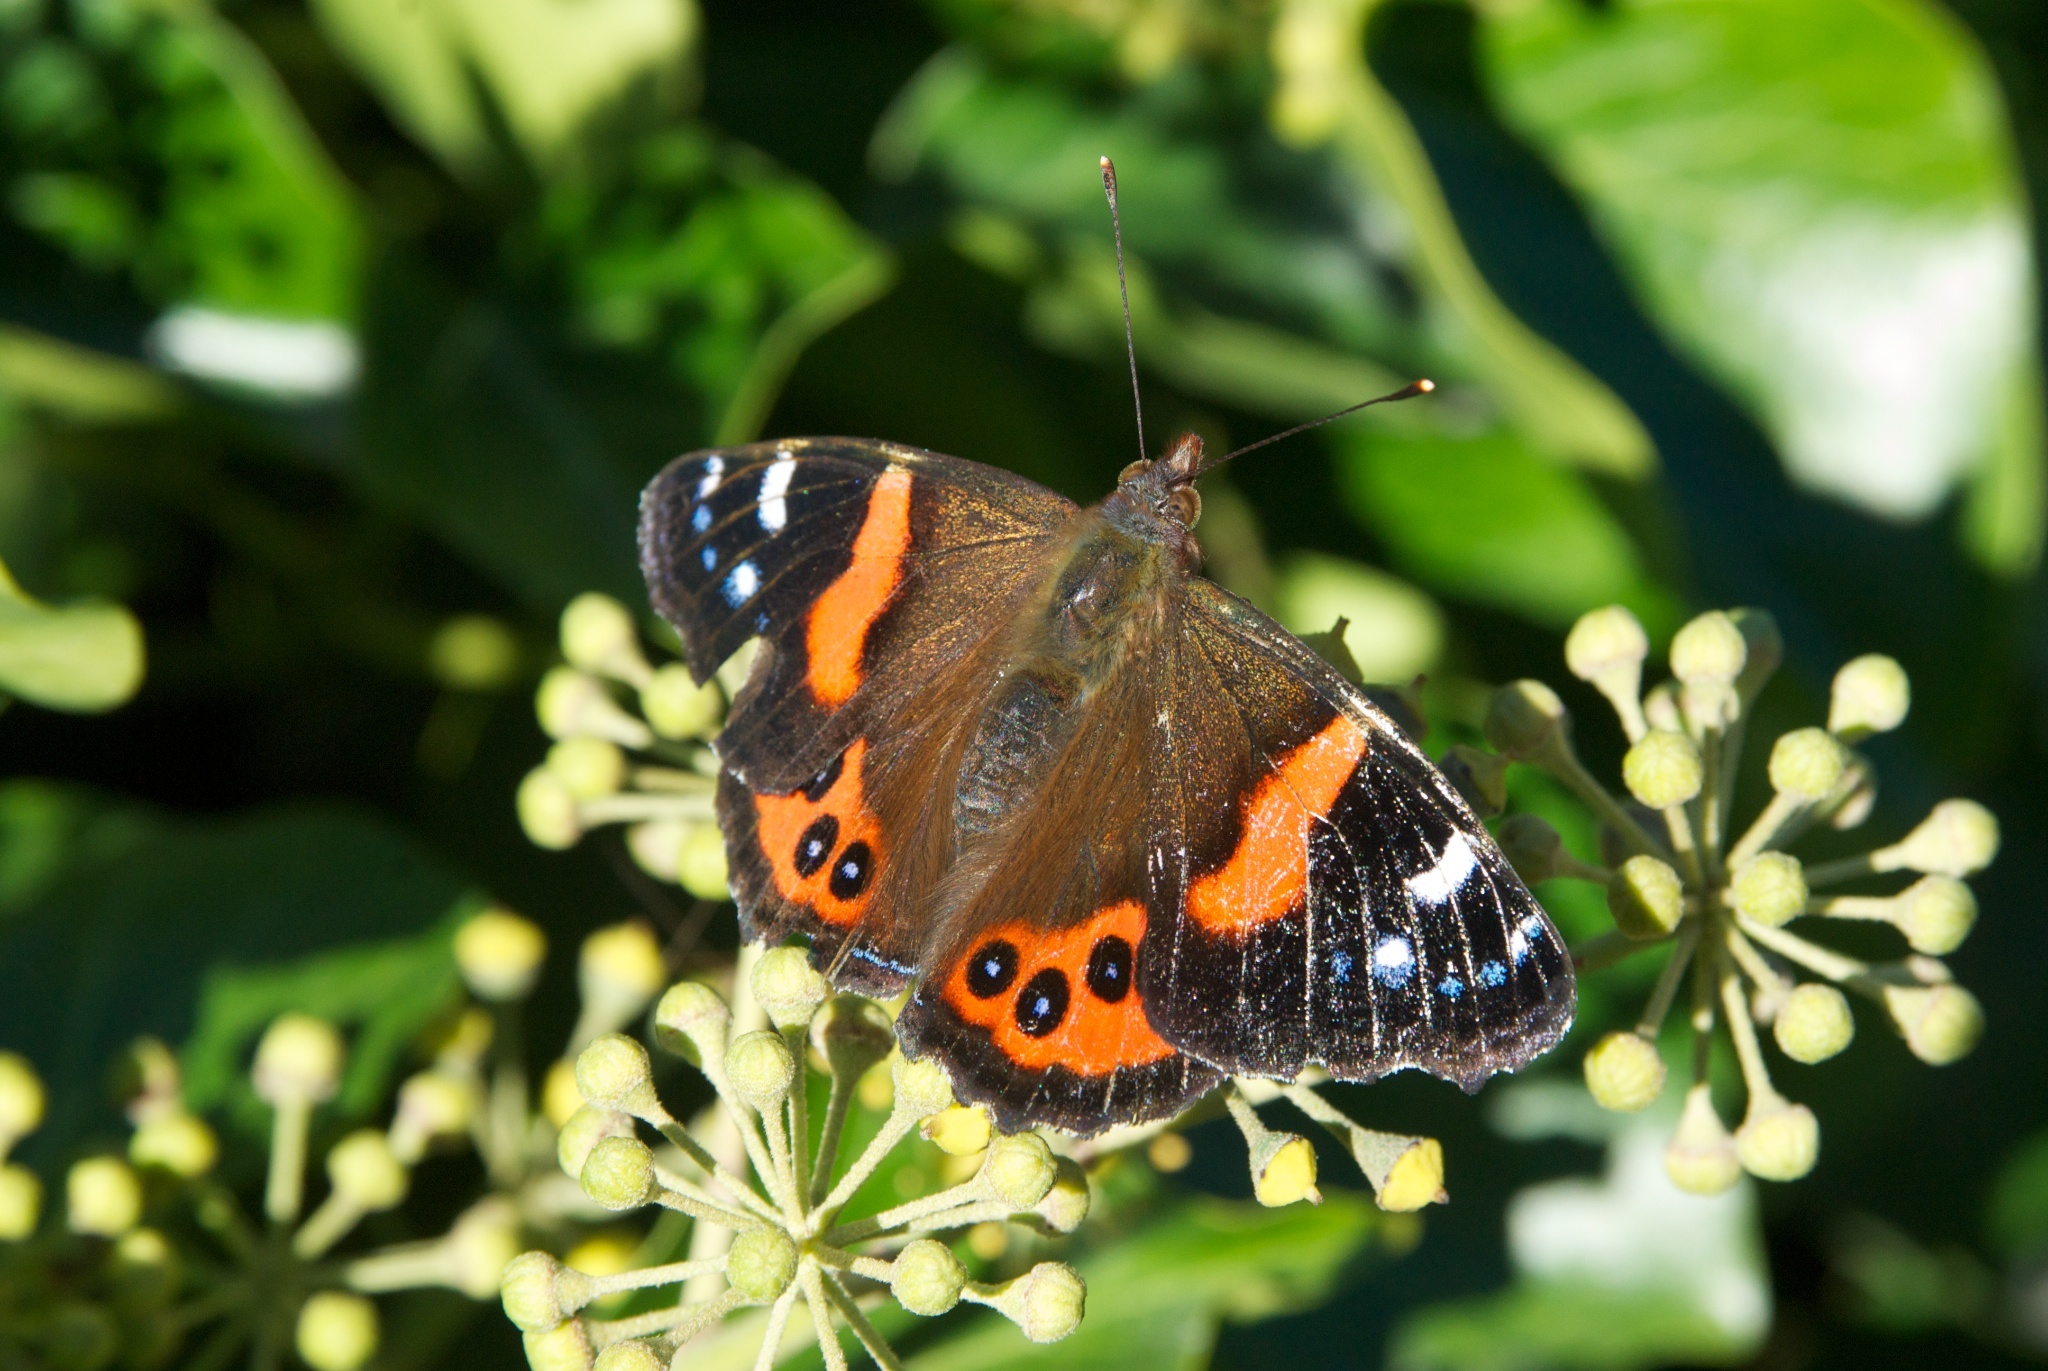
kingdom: Animalia
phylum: Arthropoda
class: Insecta
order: Lepidoptera
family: Nymphalidae
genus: Vanessa
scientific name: Vanessa gonerilla
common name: New zealand red admiral
